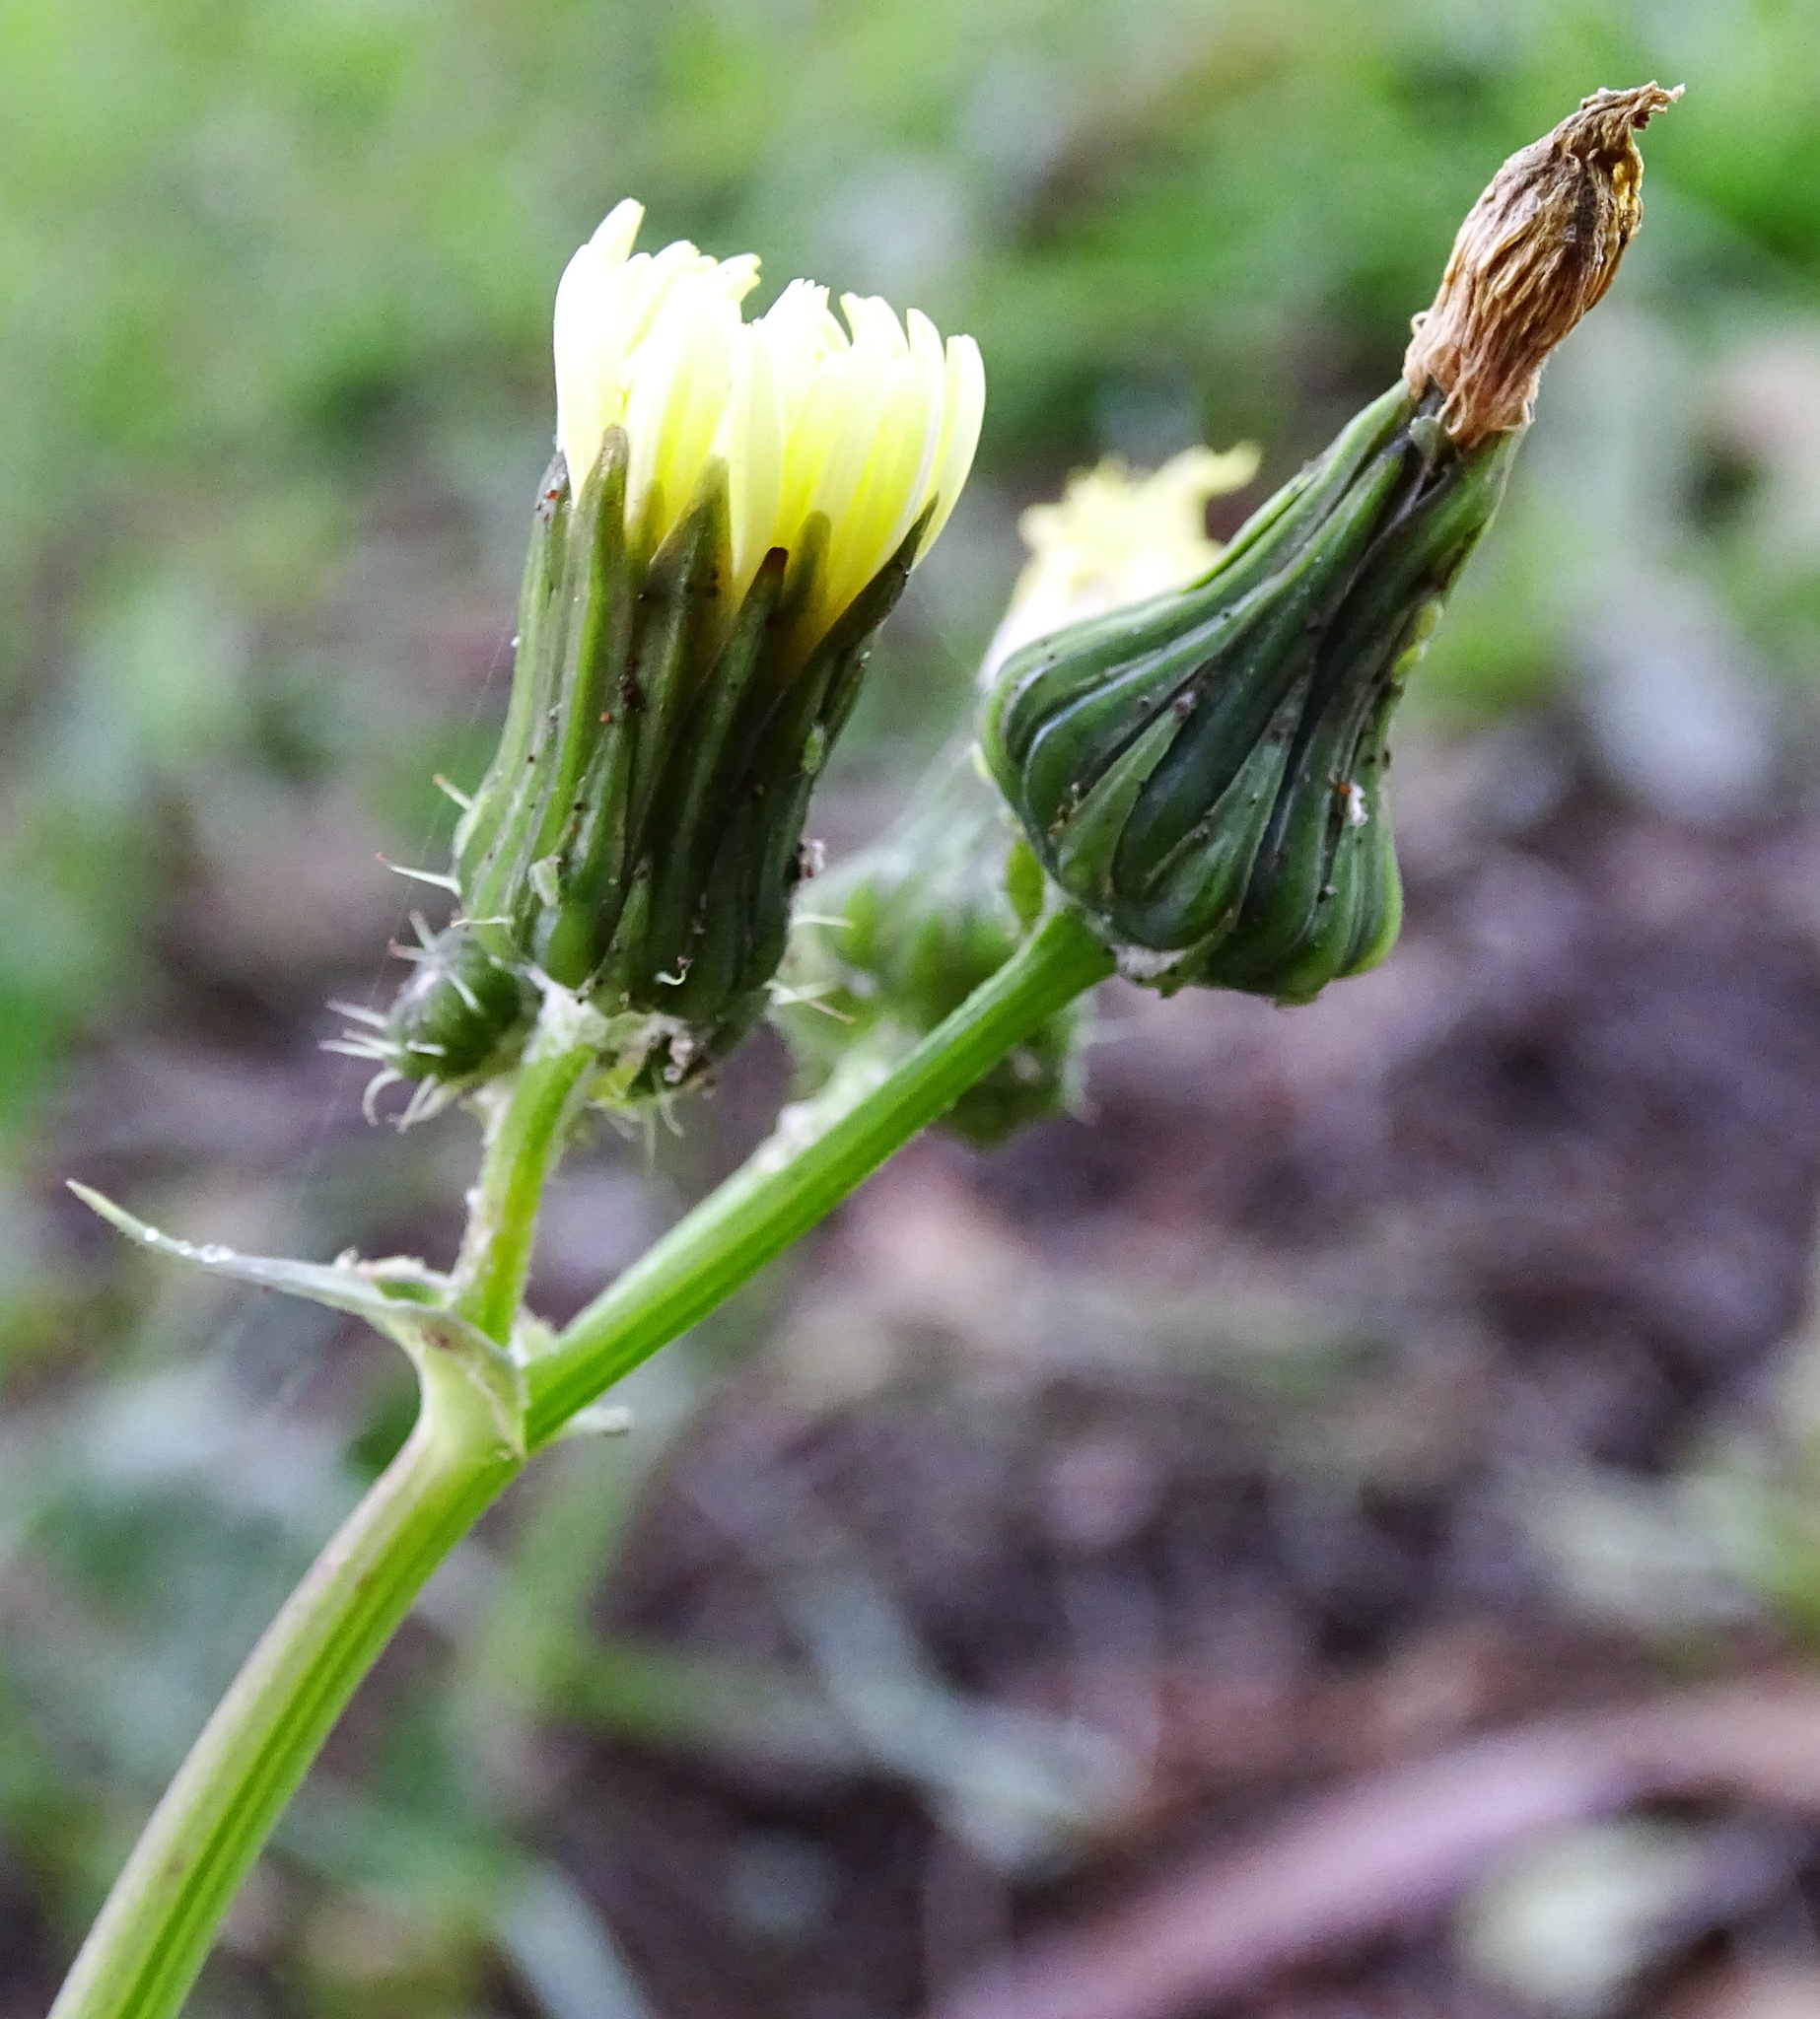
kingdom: Plantae
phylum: Tracheophyta
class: Magnoliopsida
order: Asterales
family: Asteraceae
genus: Sonchus
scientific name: Sonchus oleraceus
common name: Common sowthistle
